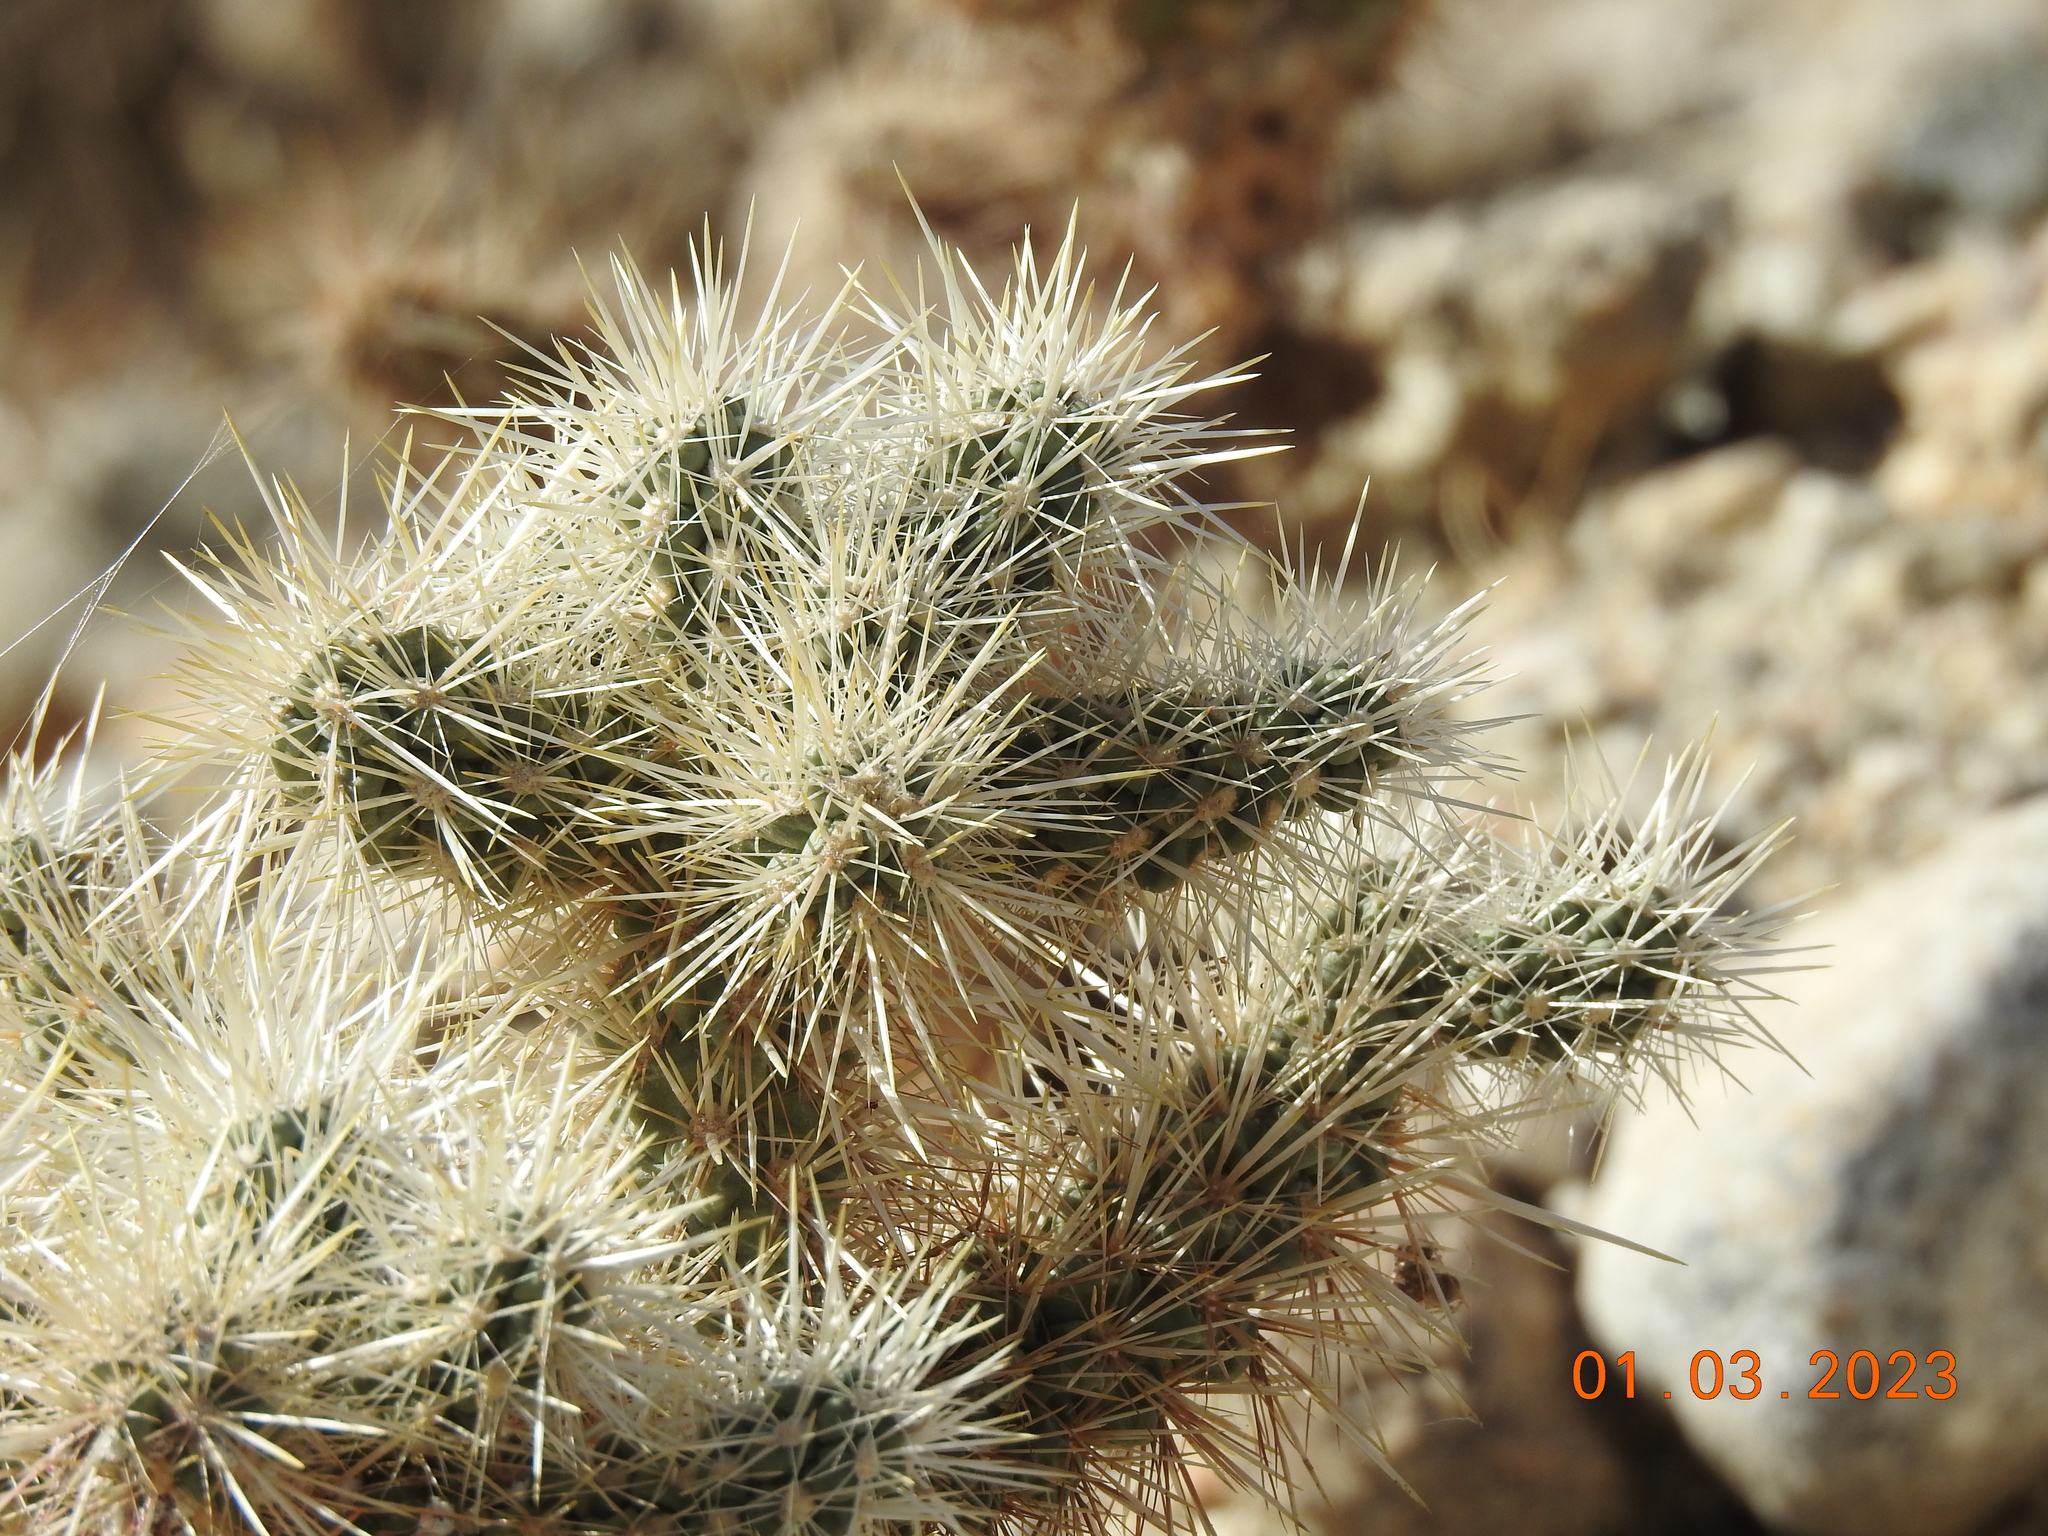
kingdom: Plantae
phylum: Tracheophyta
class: Magnoliopsida
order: Caryophyllales
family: Cactaceae
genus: Cylindropuntia
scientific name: Cylindropuntia echinocarpa
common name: Ground cholla
